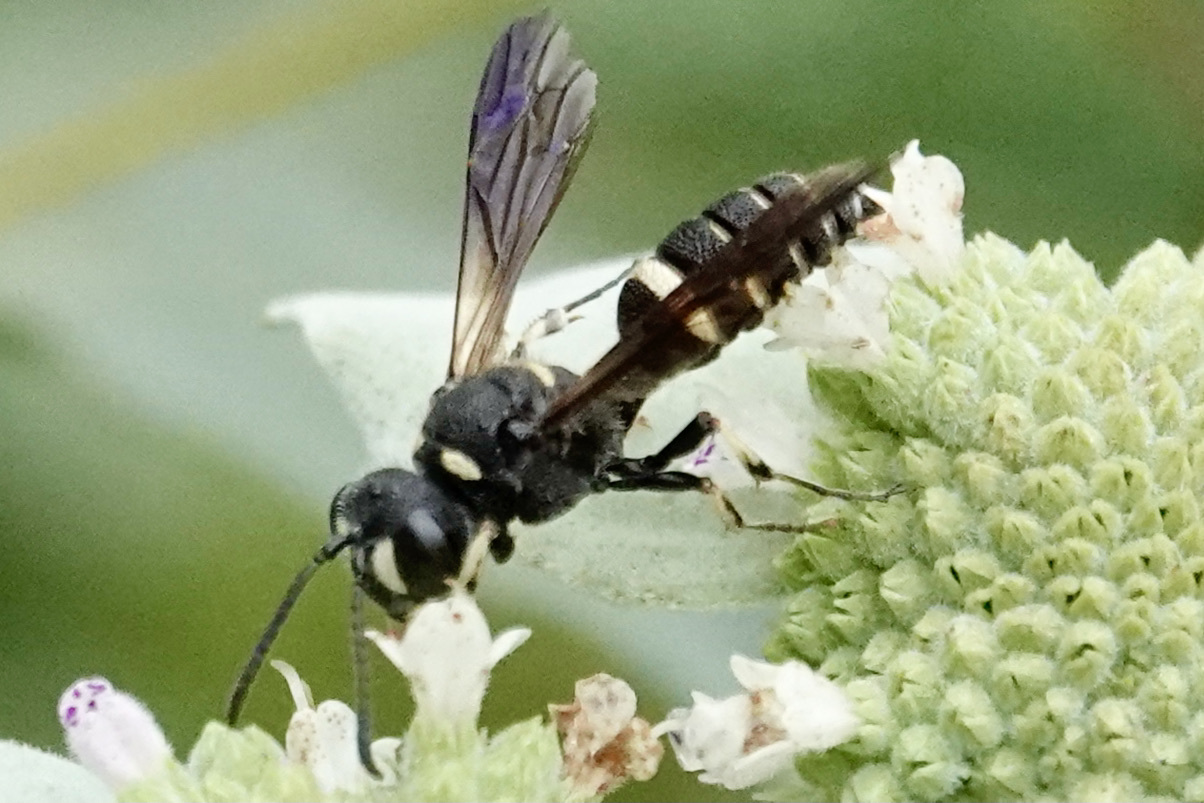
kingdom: Animalia
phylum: Arthropoda
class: Insecta
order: Hymenoptera
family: Crabronidae
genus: Cerceris
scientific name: Cerceris fumipennis
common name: Smokey-winged beetle bandit wasp
